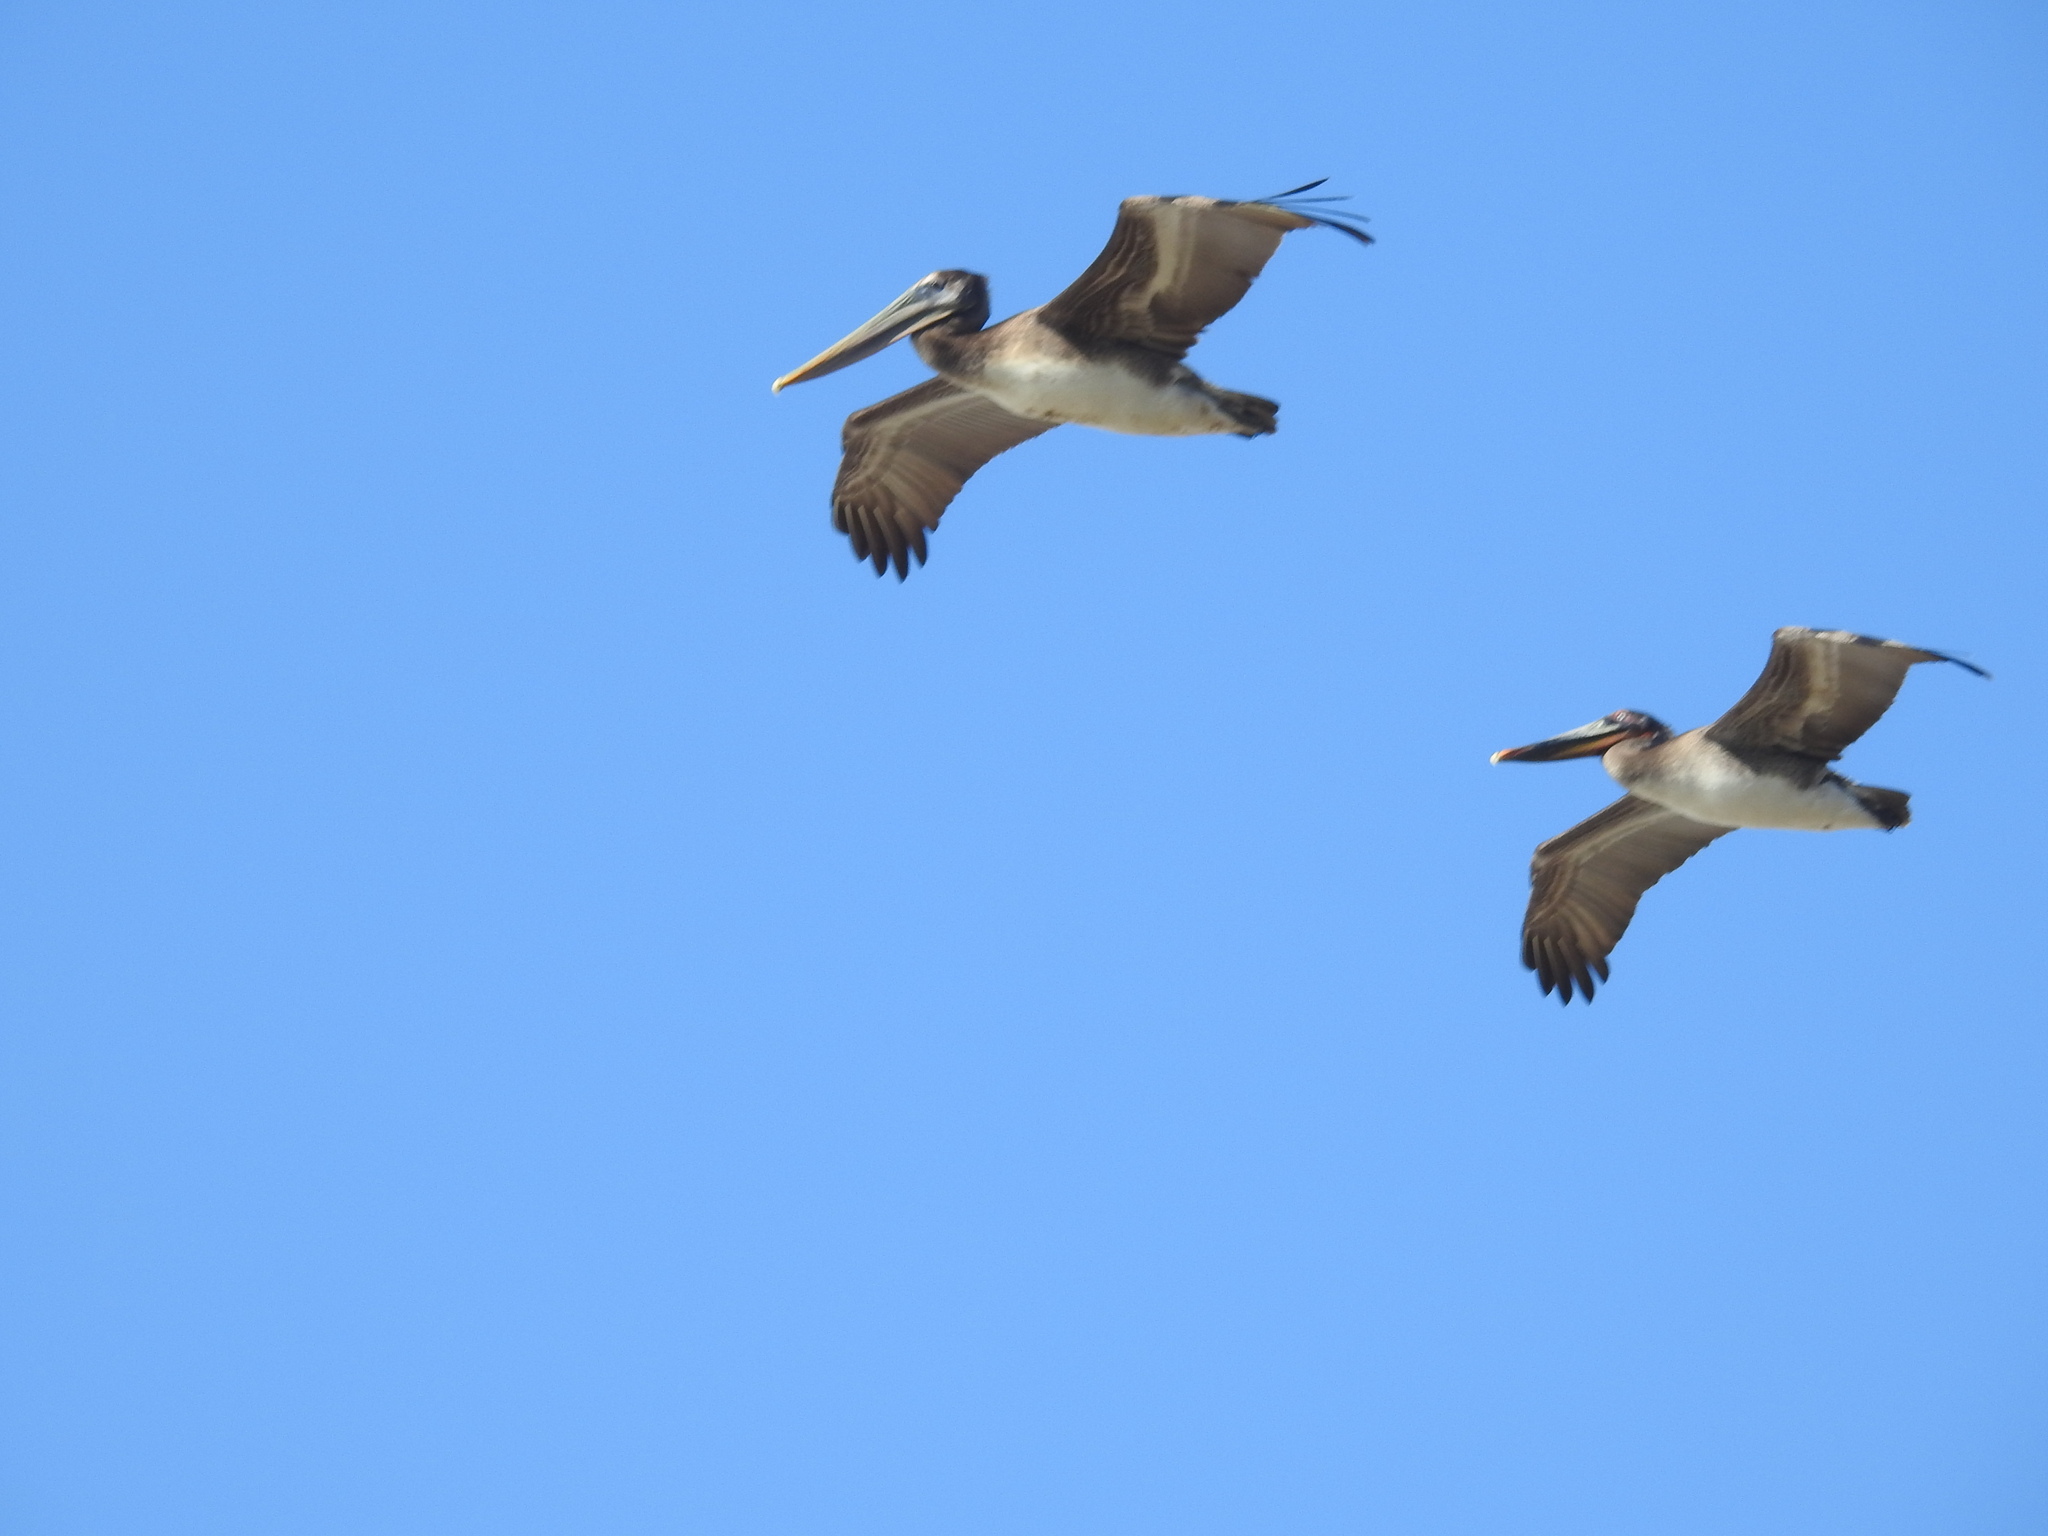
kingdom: Animalia
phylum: Chordata
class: Aves
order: Pelecaniformes
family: Pelecanidae
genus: Pelecanus
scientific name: Pelecanus occidentalis
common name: Brown pelican
